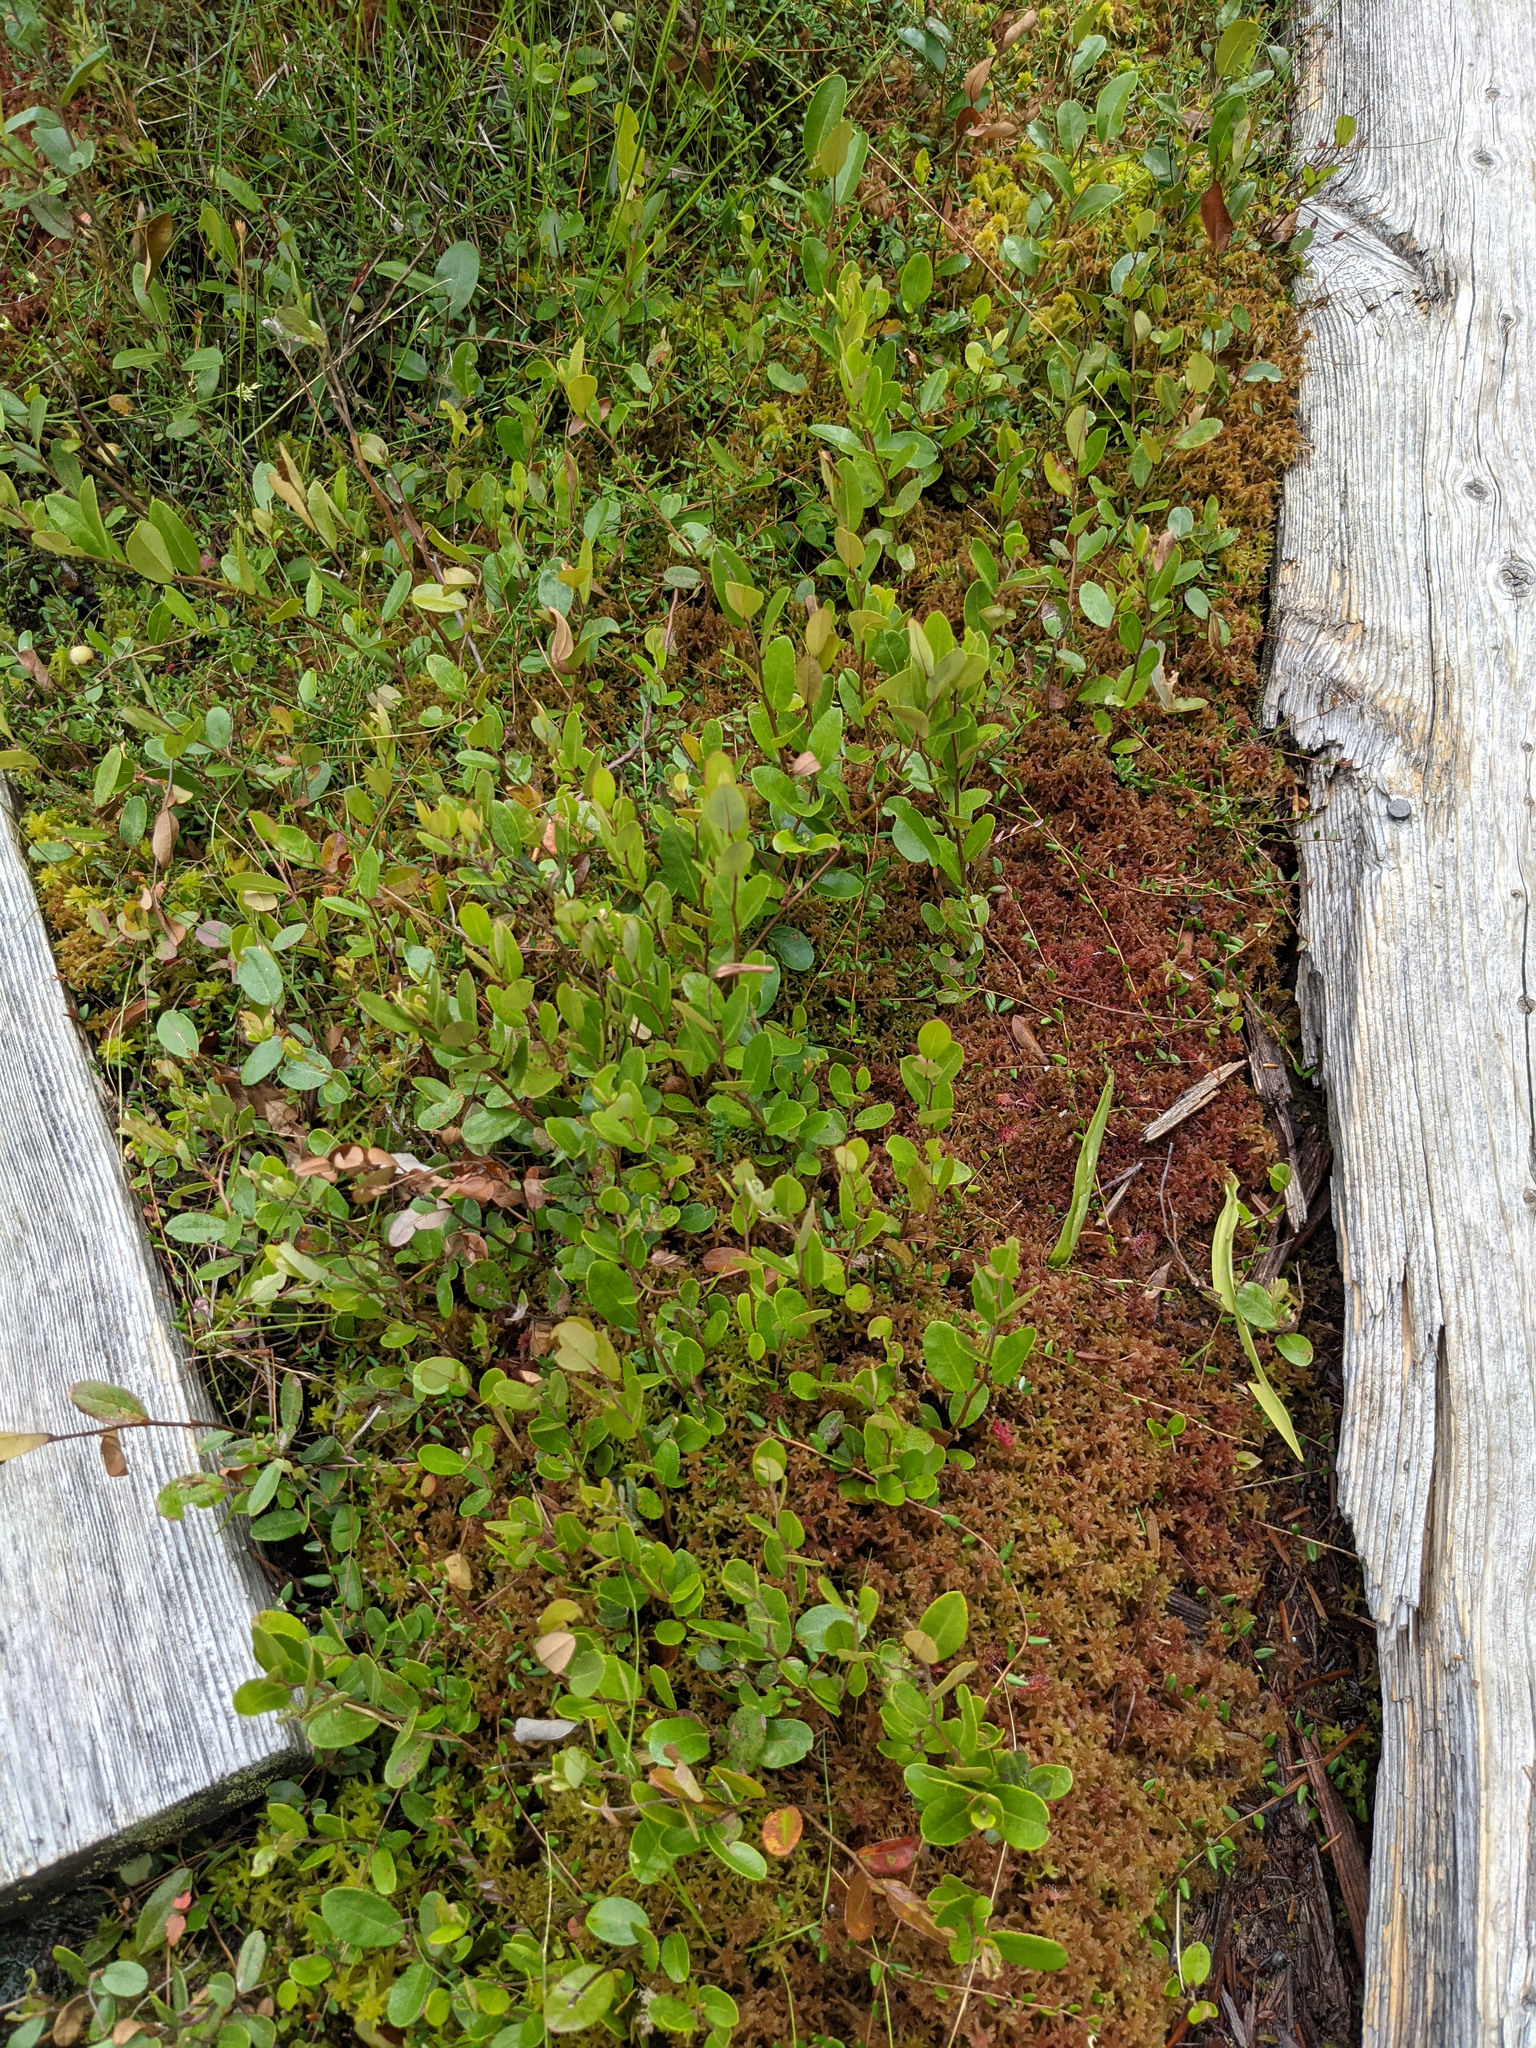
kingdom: Plantae
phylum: Tracheophyta
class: Magnoliopsida
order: Ericales
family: Ericaceae
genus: Chamaedaphne
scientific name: Chamaedaphne calyculata
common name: Leatherleaf
